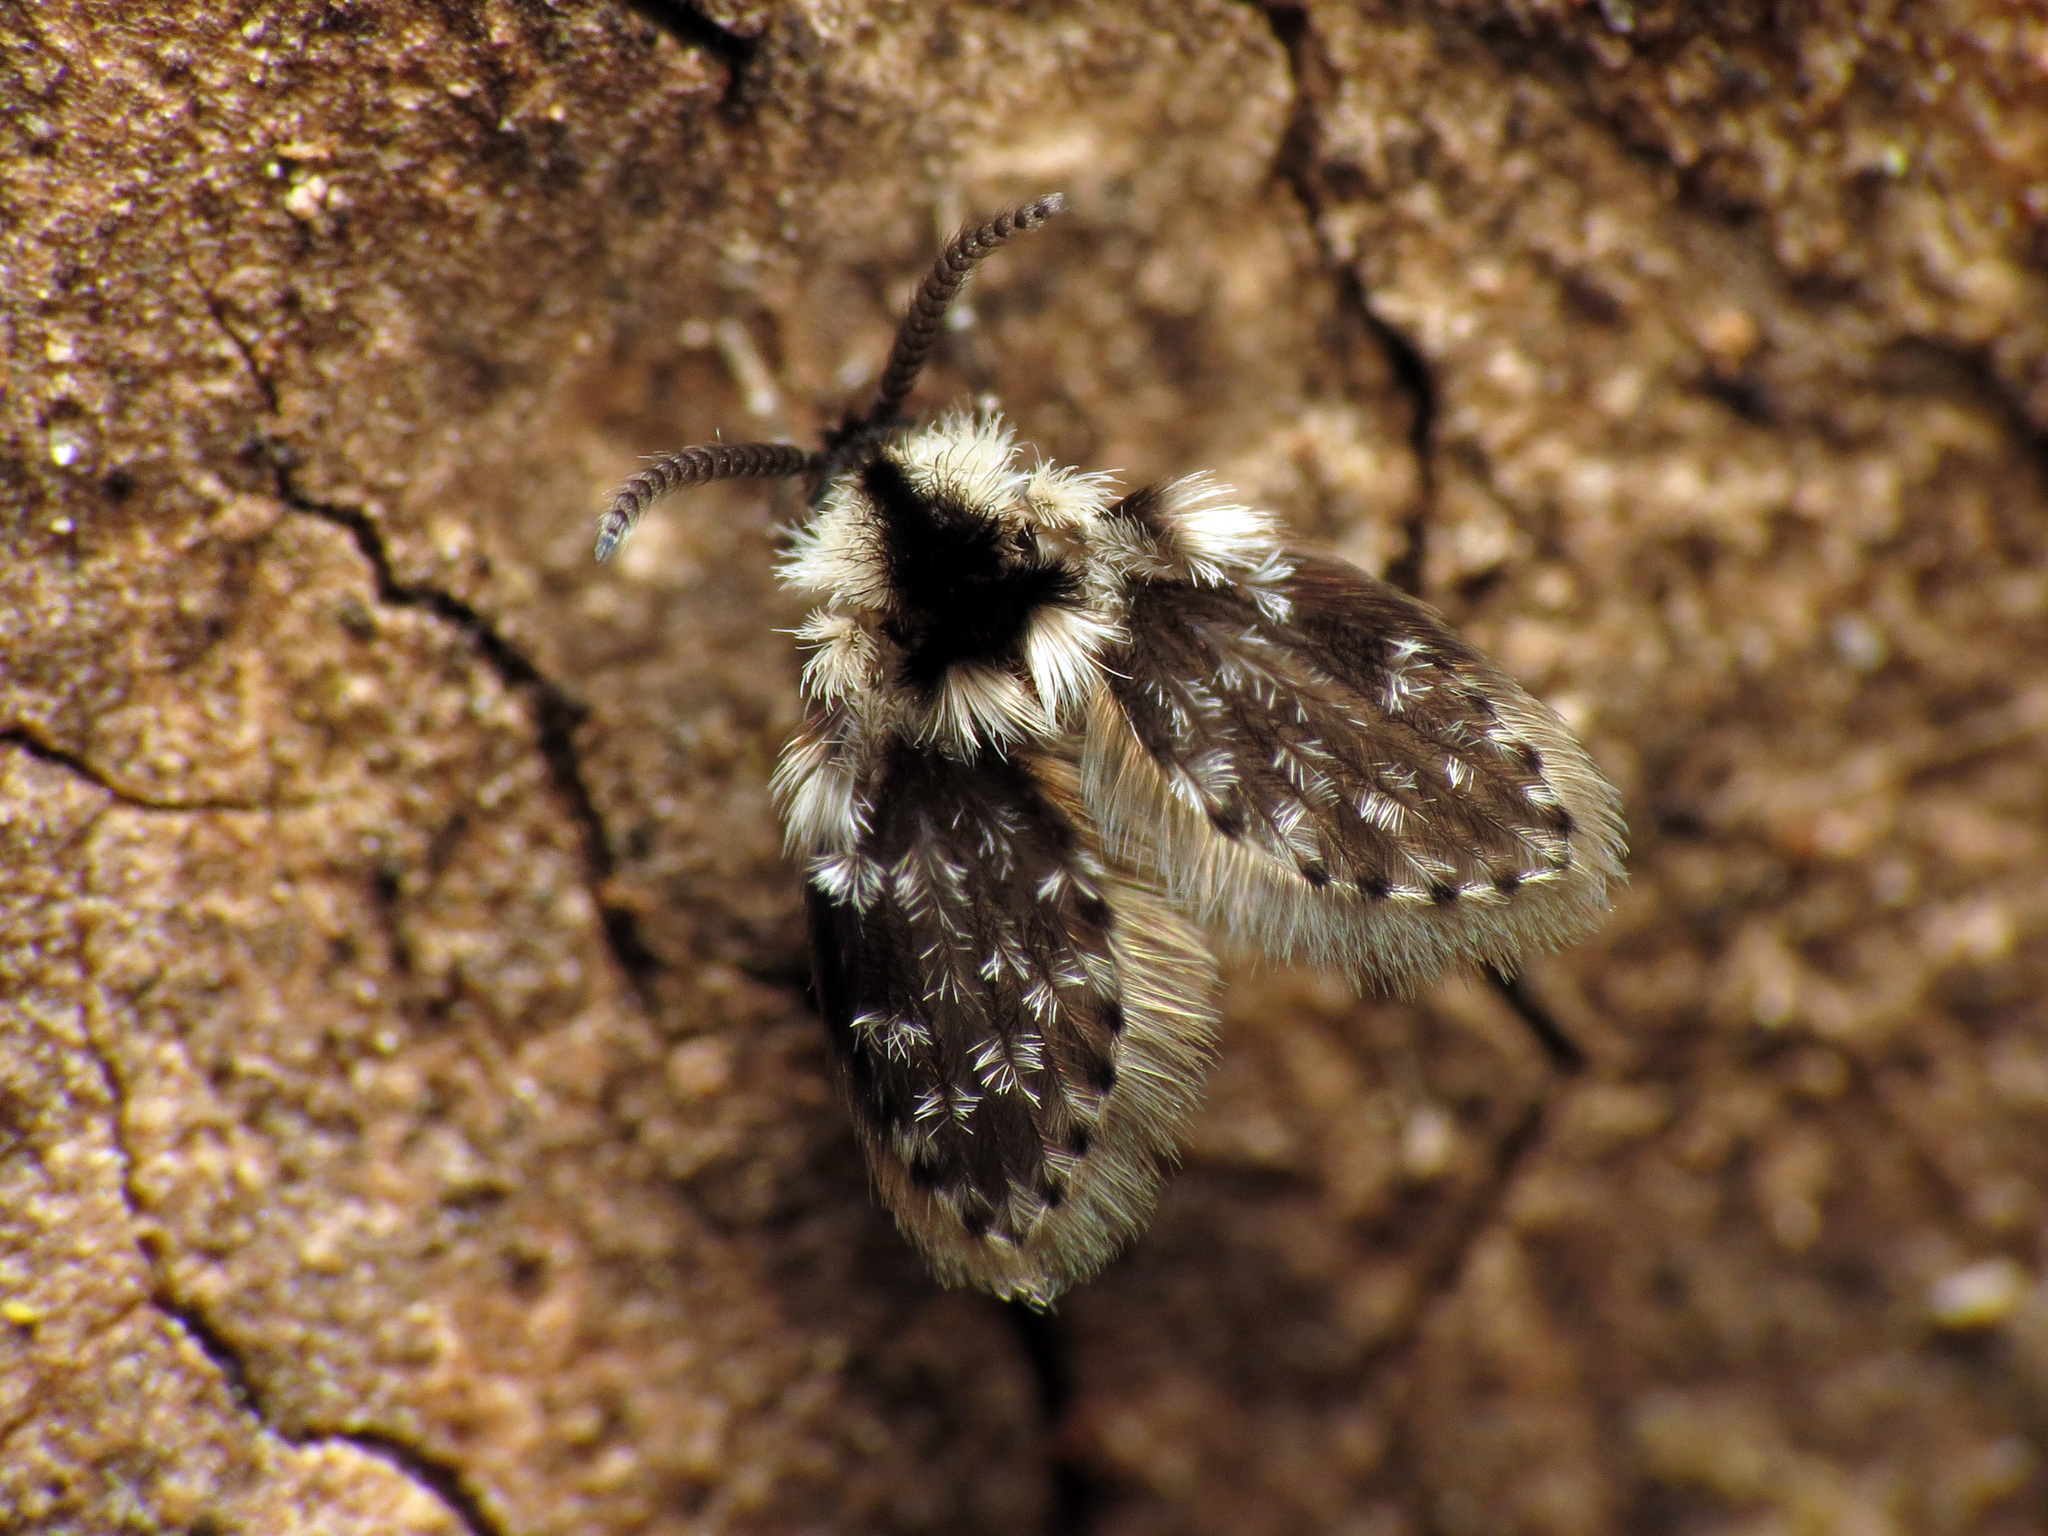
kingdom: Animalia
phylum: Arthropoda
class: Insecta
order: Diptera
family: Psychodidae
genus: Lepiseodina
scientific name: Lepiseodina
